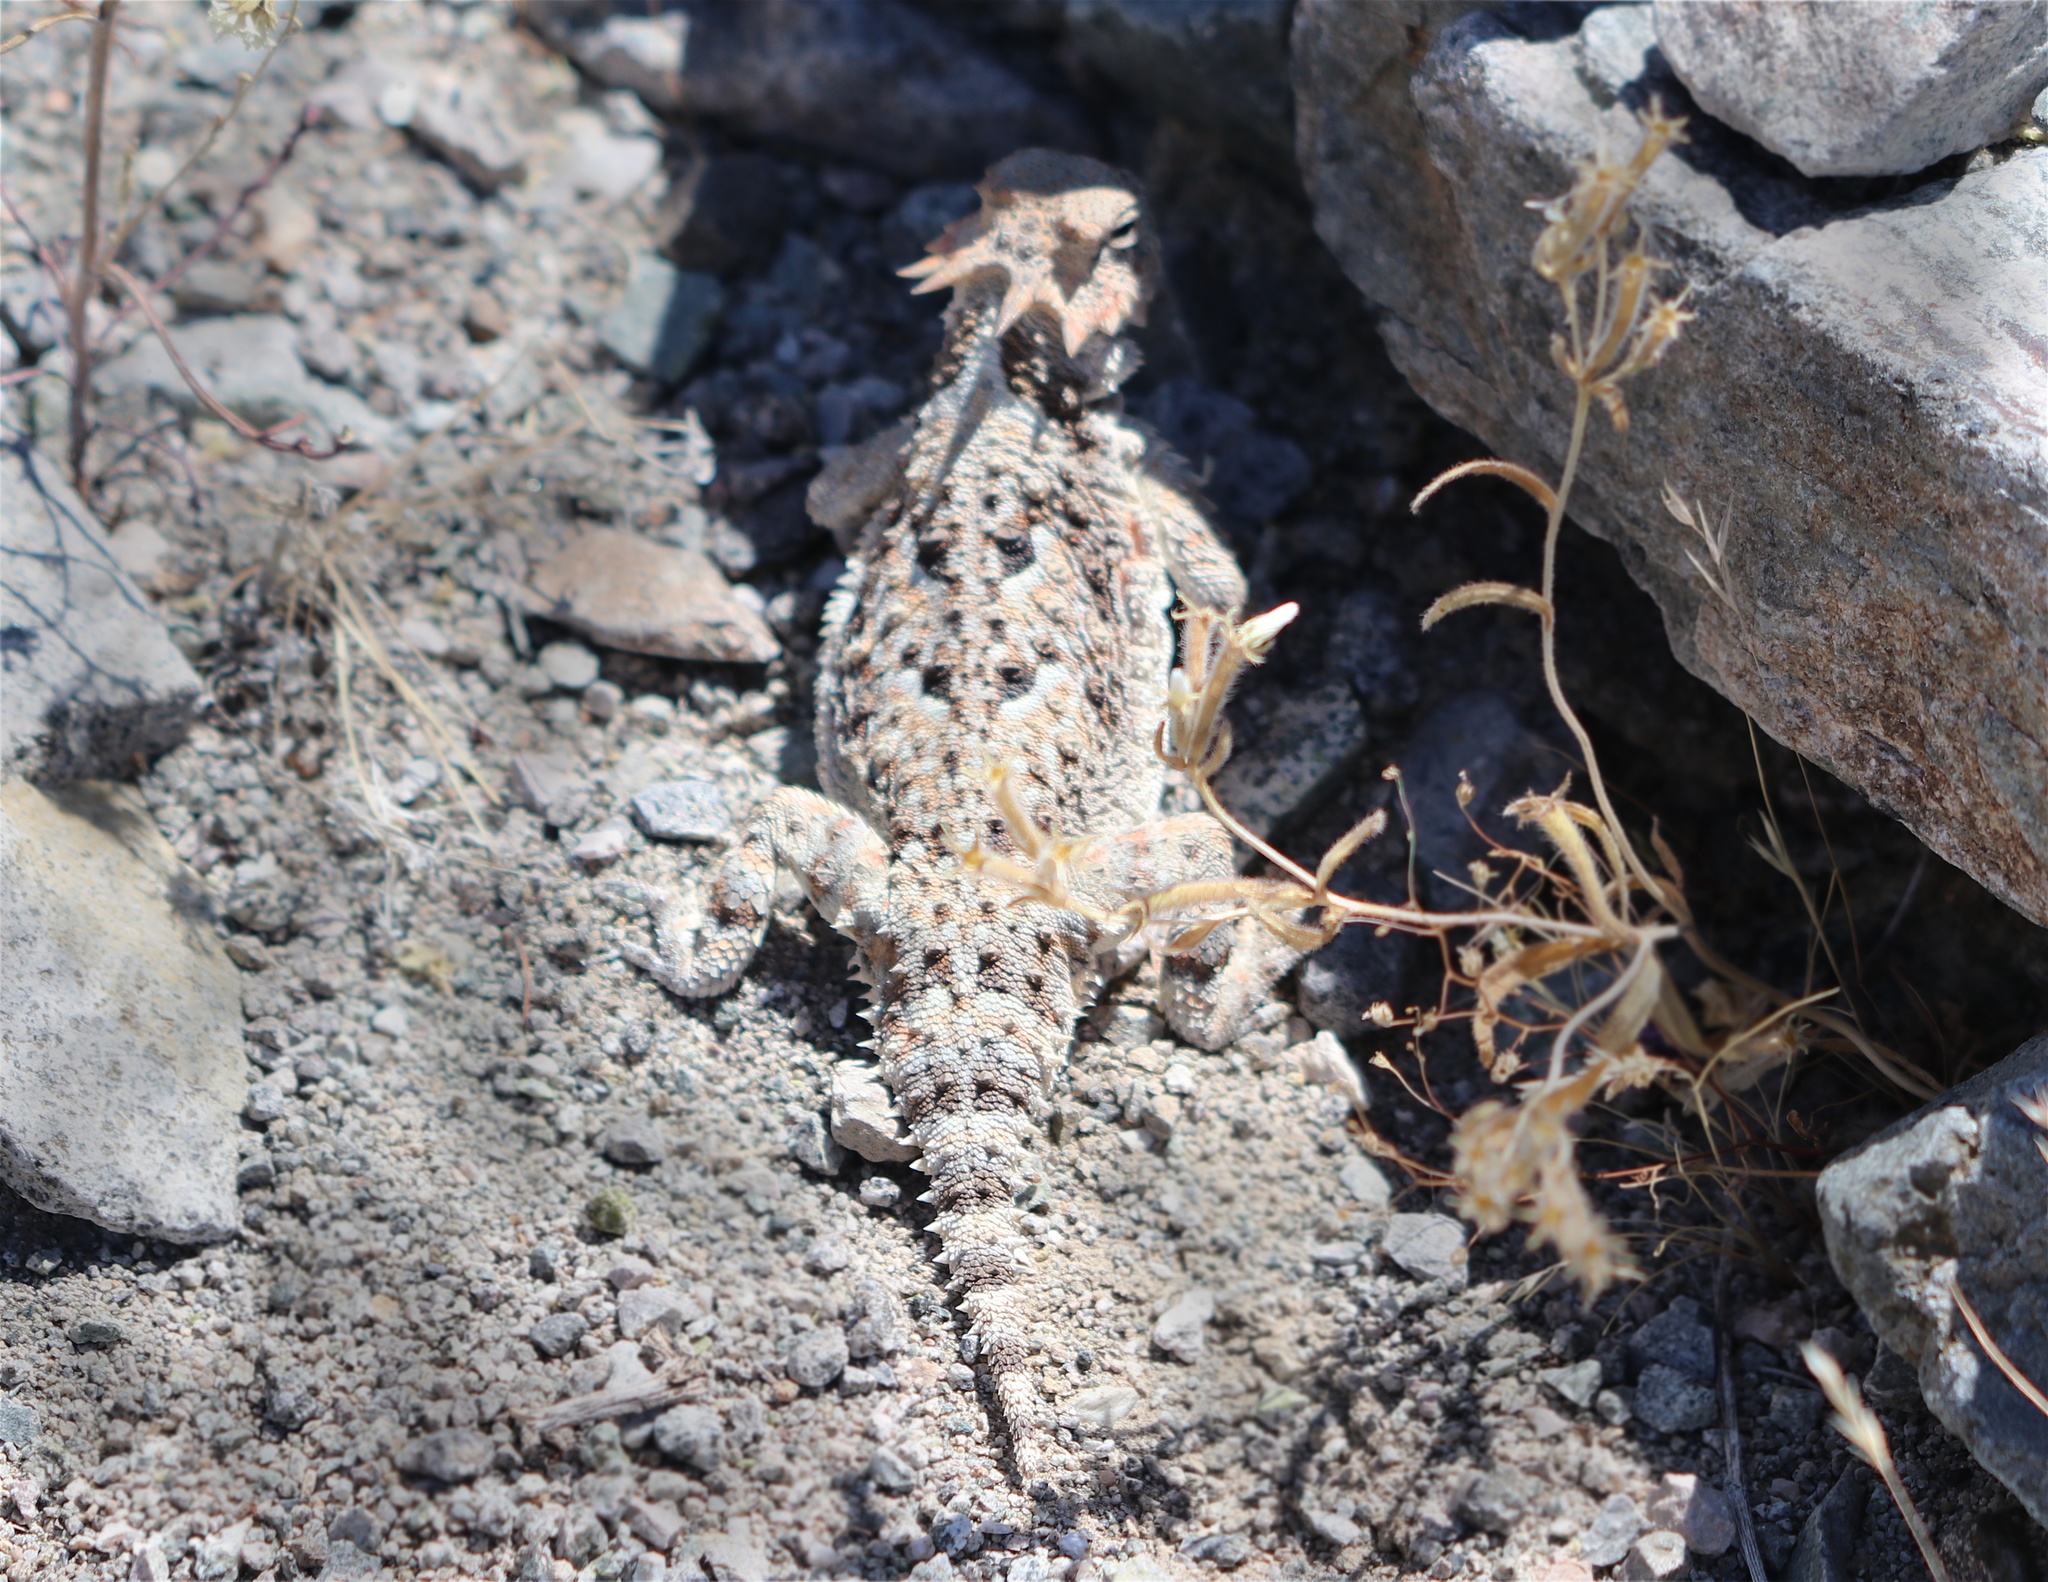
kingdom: Animalia
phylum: Chordata
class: Squamata
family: Phrynosomatidae
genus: Phrynosoma
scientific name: Phrynosoma platyrhinos
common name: Desert horned lizard
